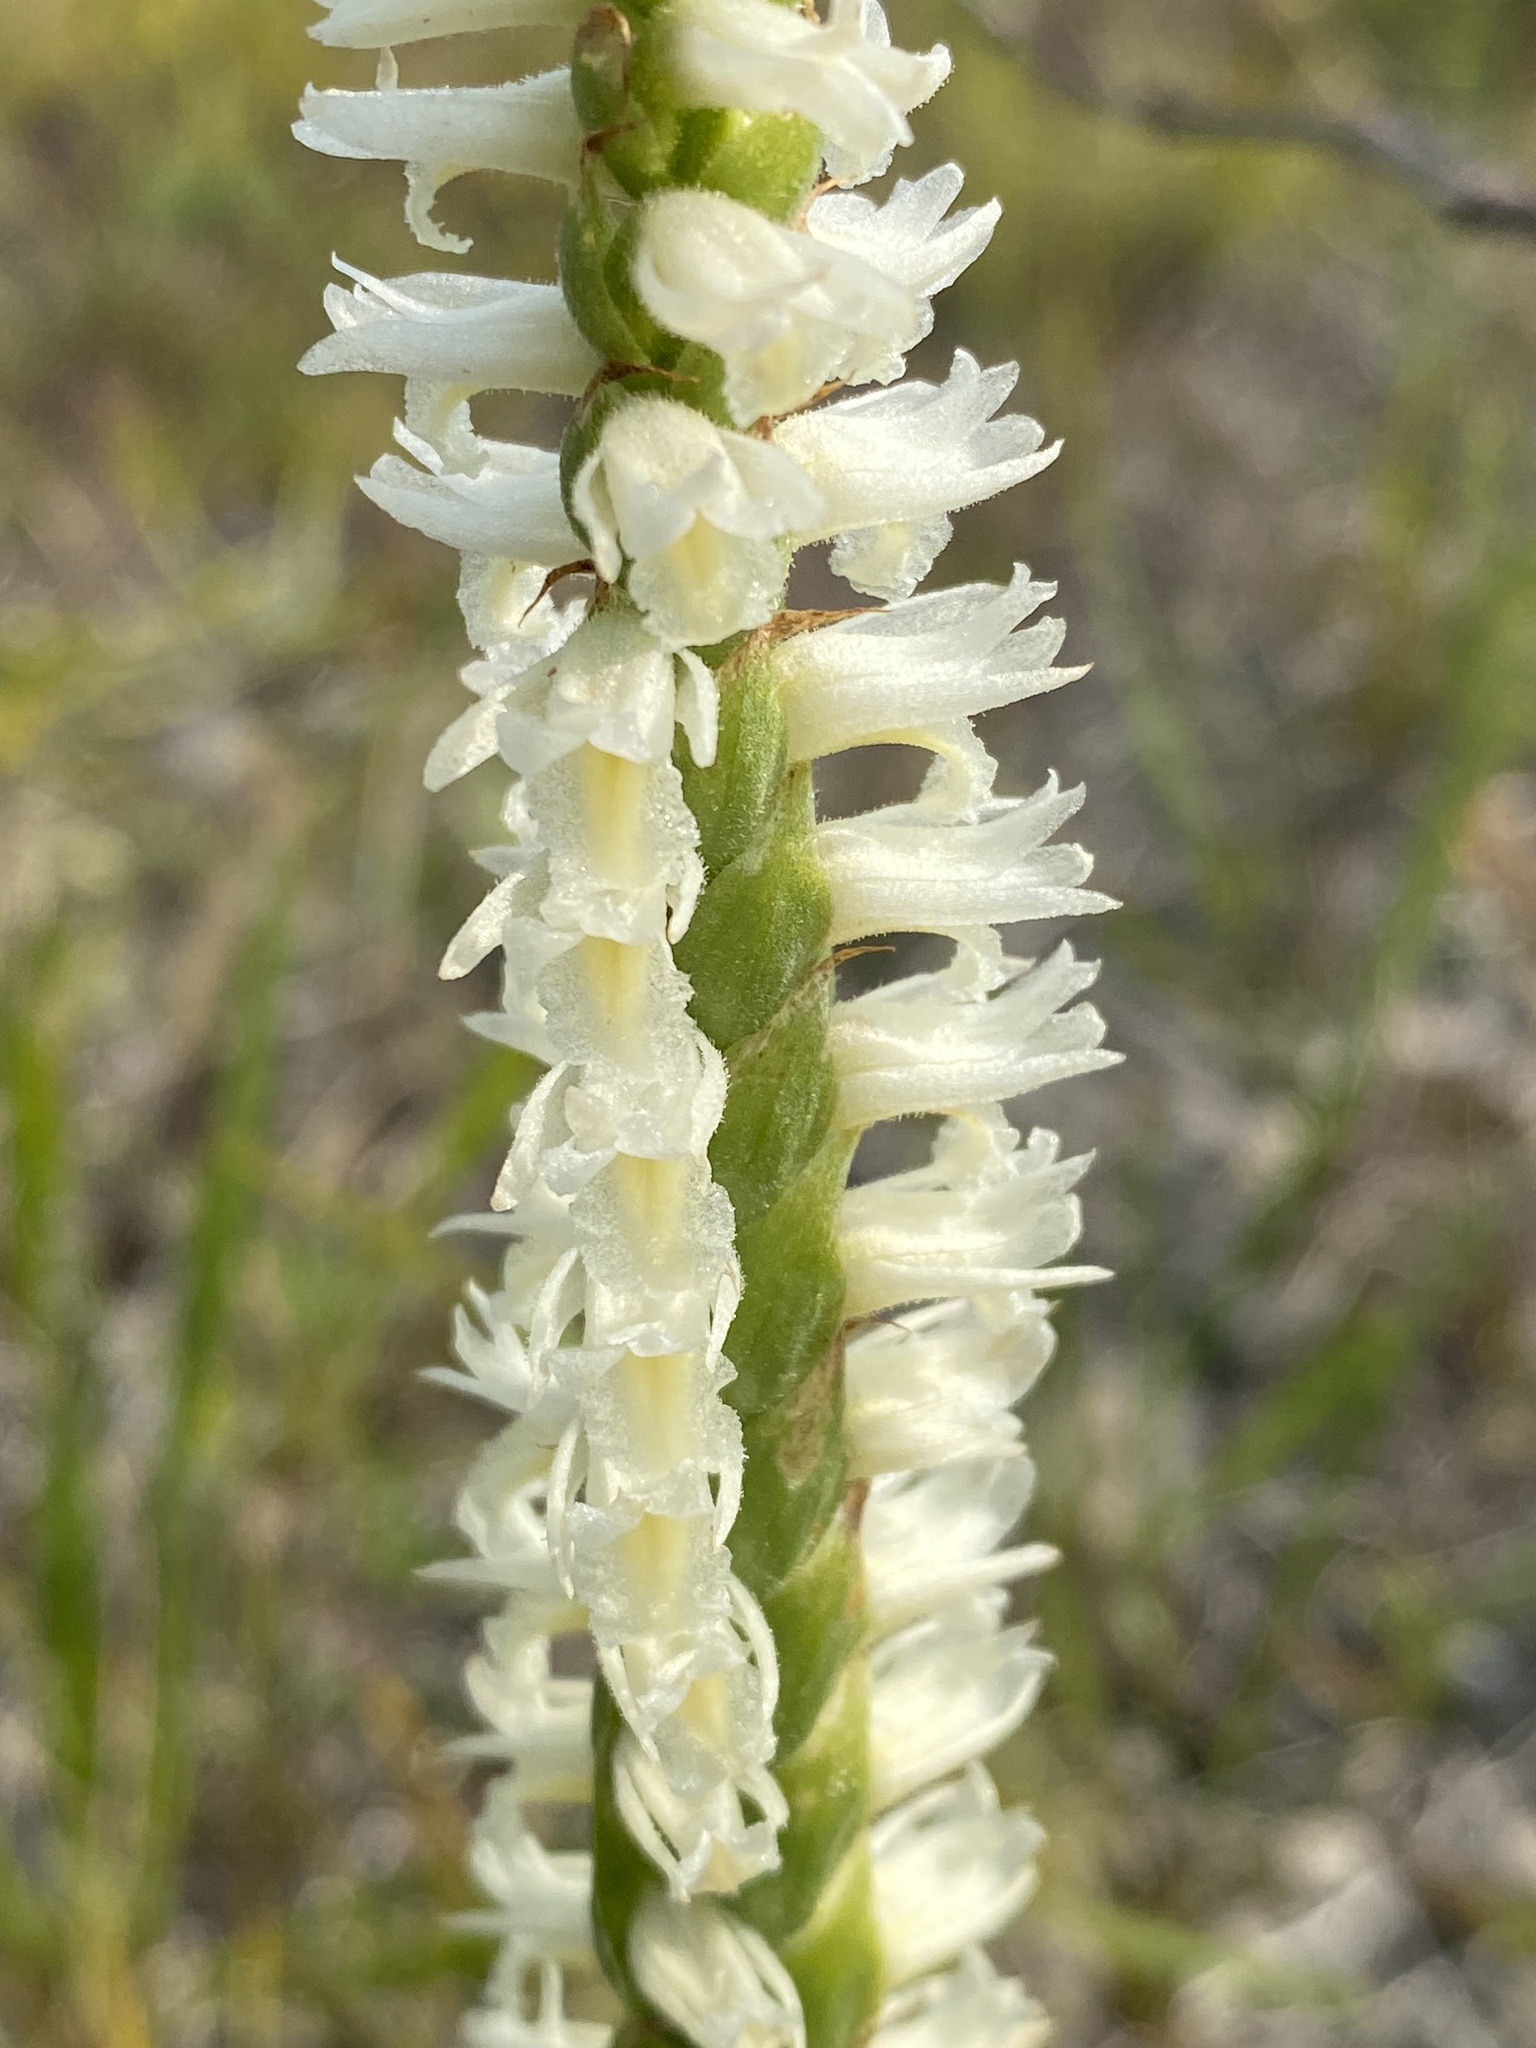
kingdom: Plantae
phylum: Tracheophyta
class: Liliopsida
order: Asparagales
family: Orchidaceae
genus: Spiranthes
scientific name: Spiranthes magnicamporum
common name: Great plains ladies'-tresses
